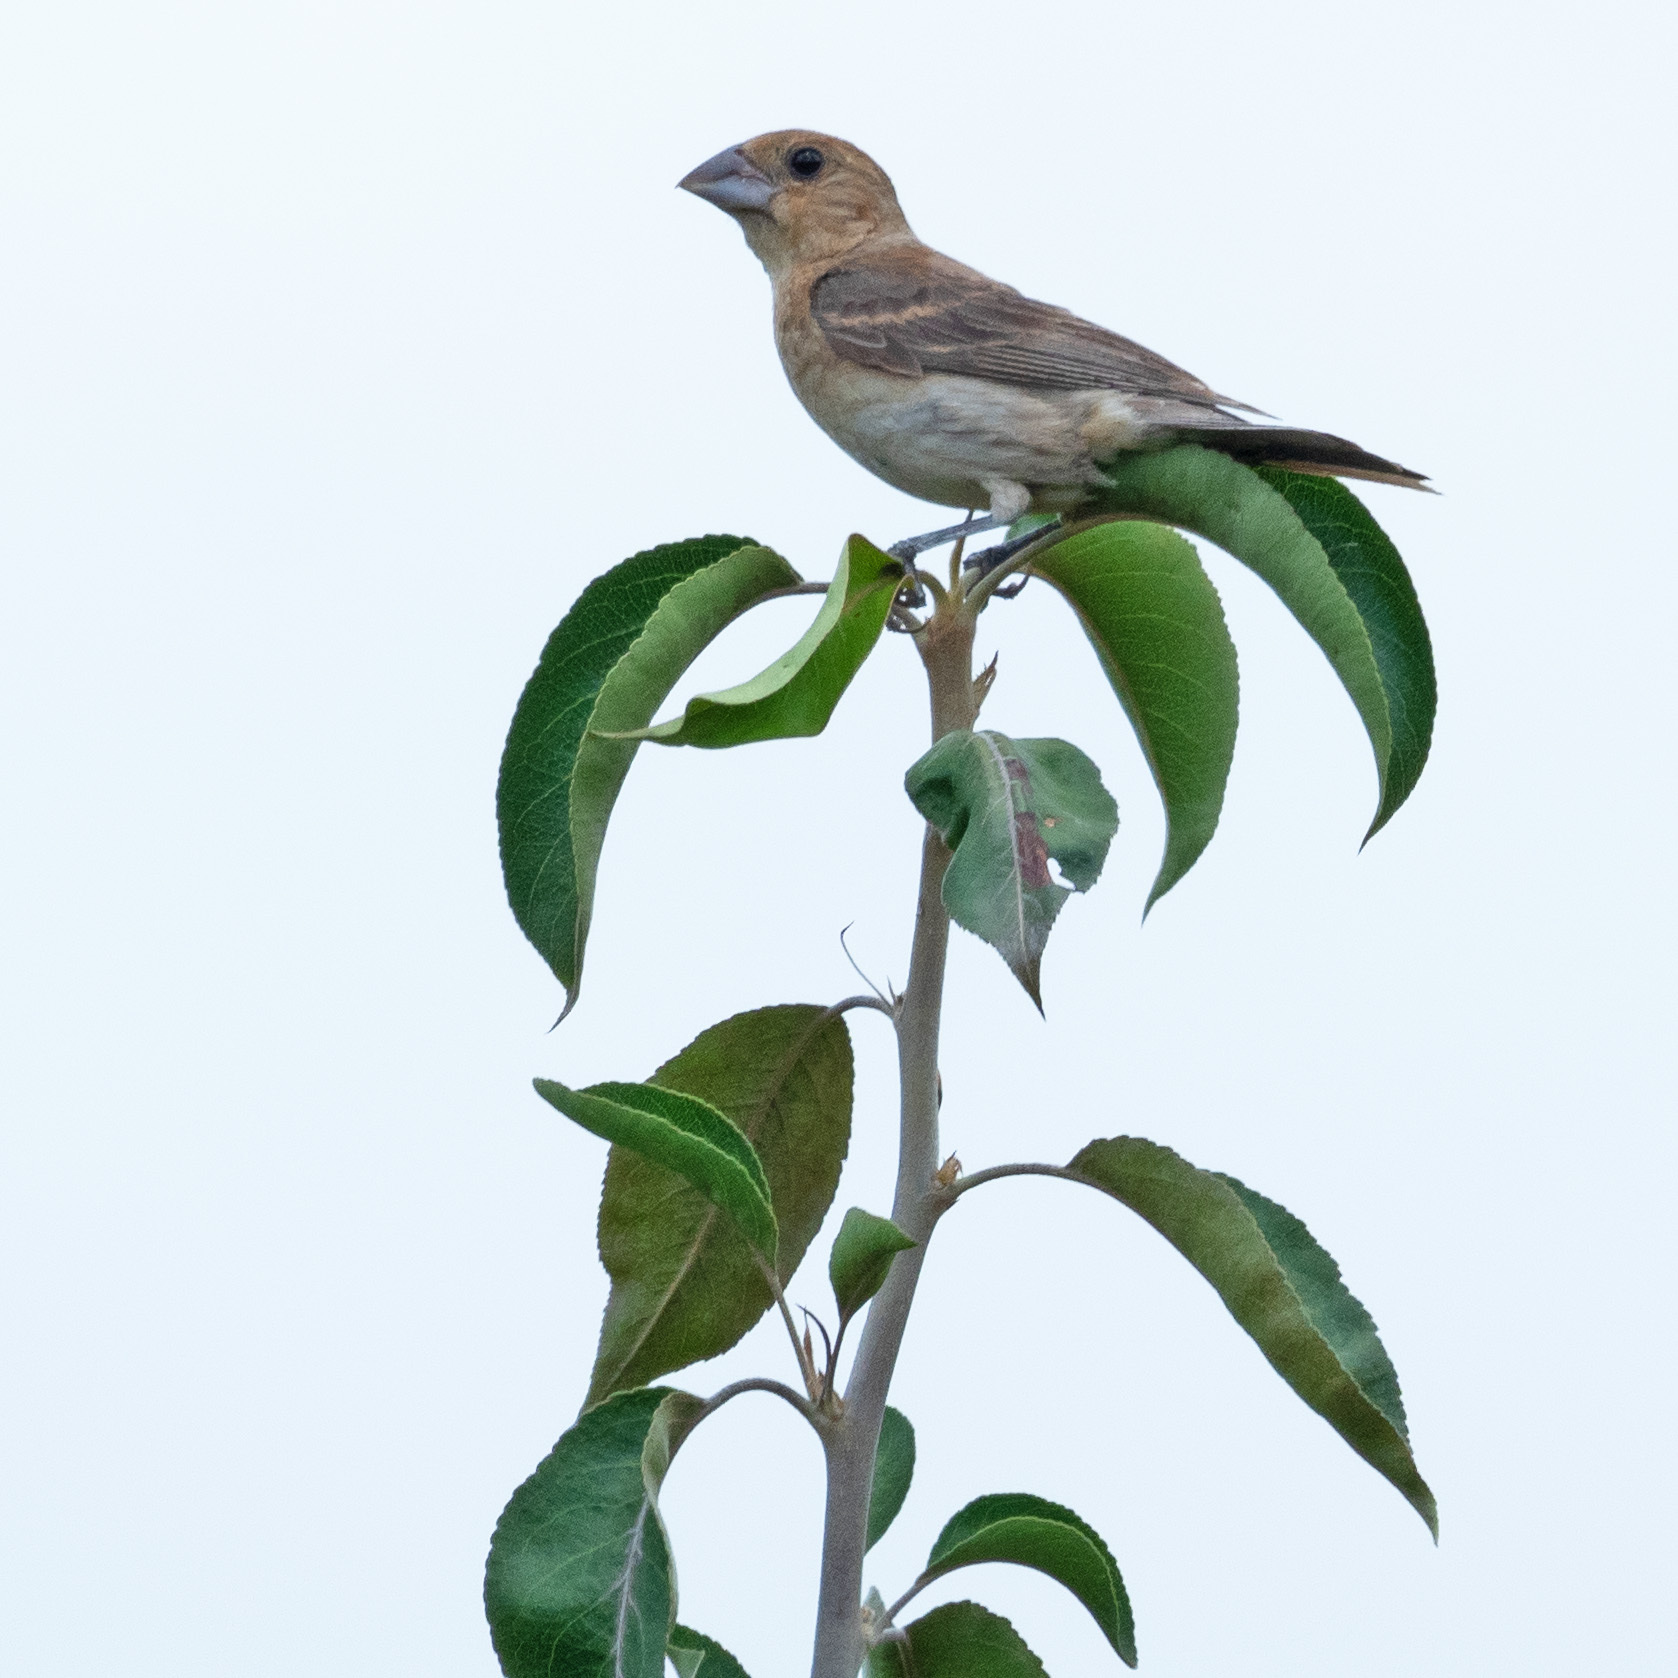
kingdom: Animalia
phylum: Chordata
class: Aves
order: Passeriformes
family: Cardinalidae
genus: Passerina
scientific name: Passerina caerulea
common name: Blue grosbeak
